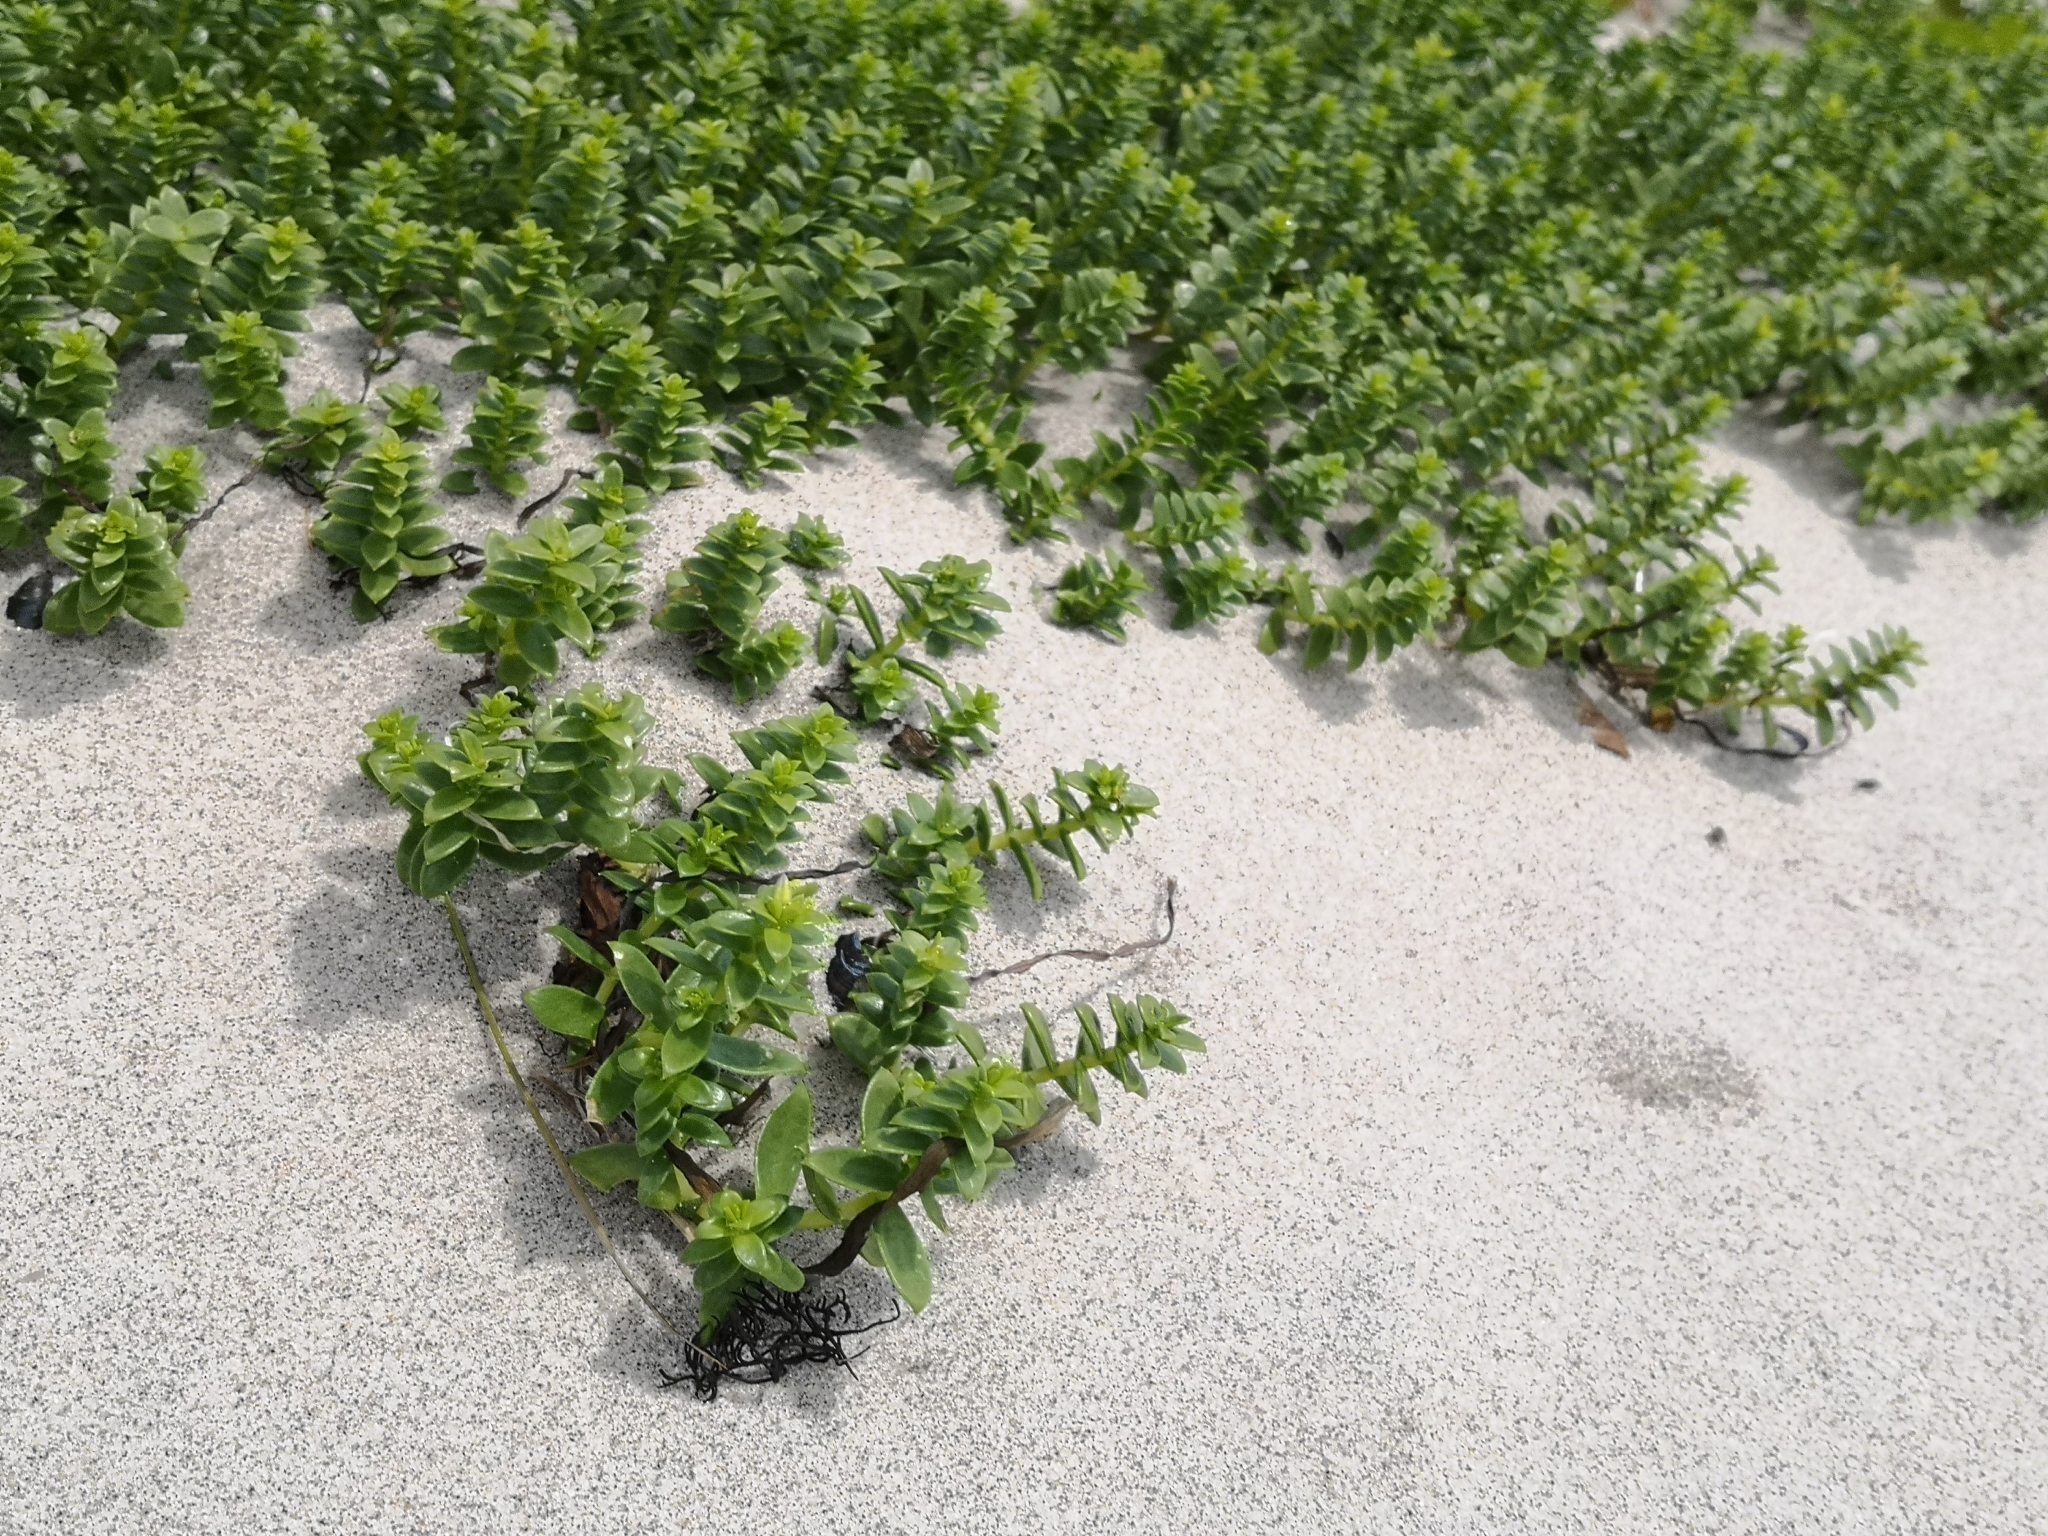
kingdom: Plantae
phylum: Tracheophyta
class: Magnoliopsida
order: Caryophyllales
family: Caryophyllaceae
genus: Honckenya
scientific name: Honckenya peploides
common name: Sea sandwort
